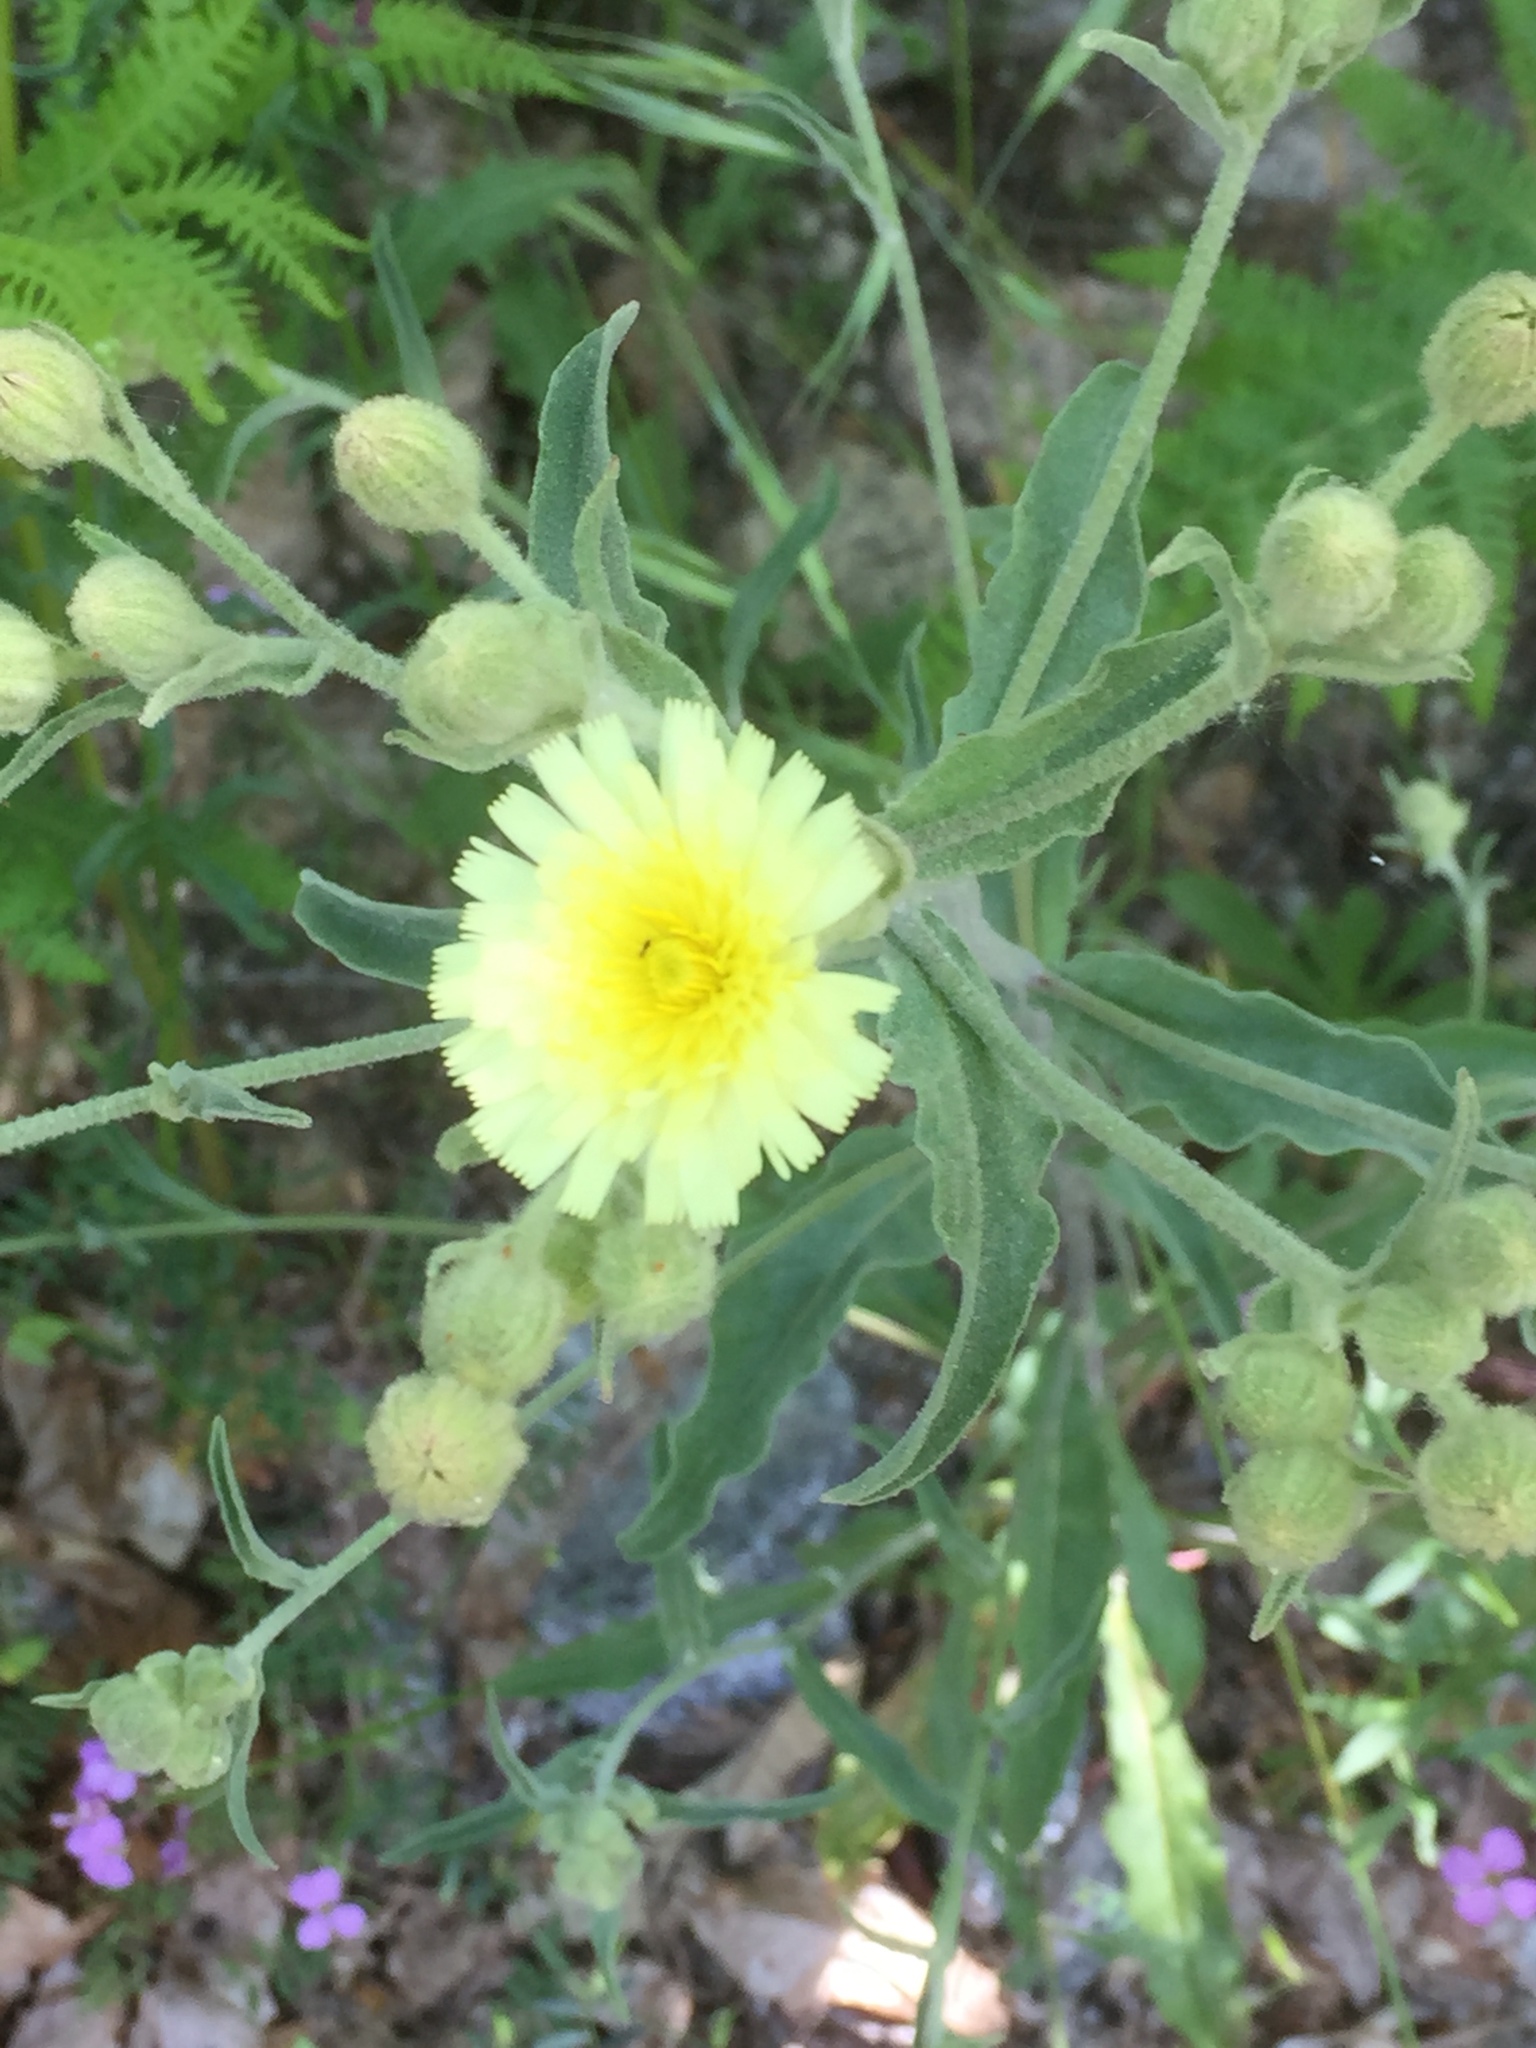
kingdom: Plantae
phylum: Tracheophyta
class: Magnoliopsida
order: Asterales
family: Asteraceae
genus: Andryala
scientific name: Andryala integrifolia
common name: Common andryala
